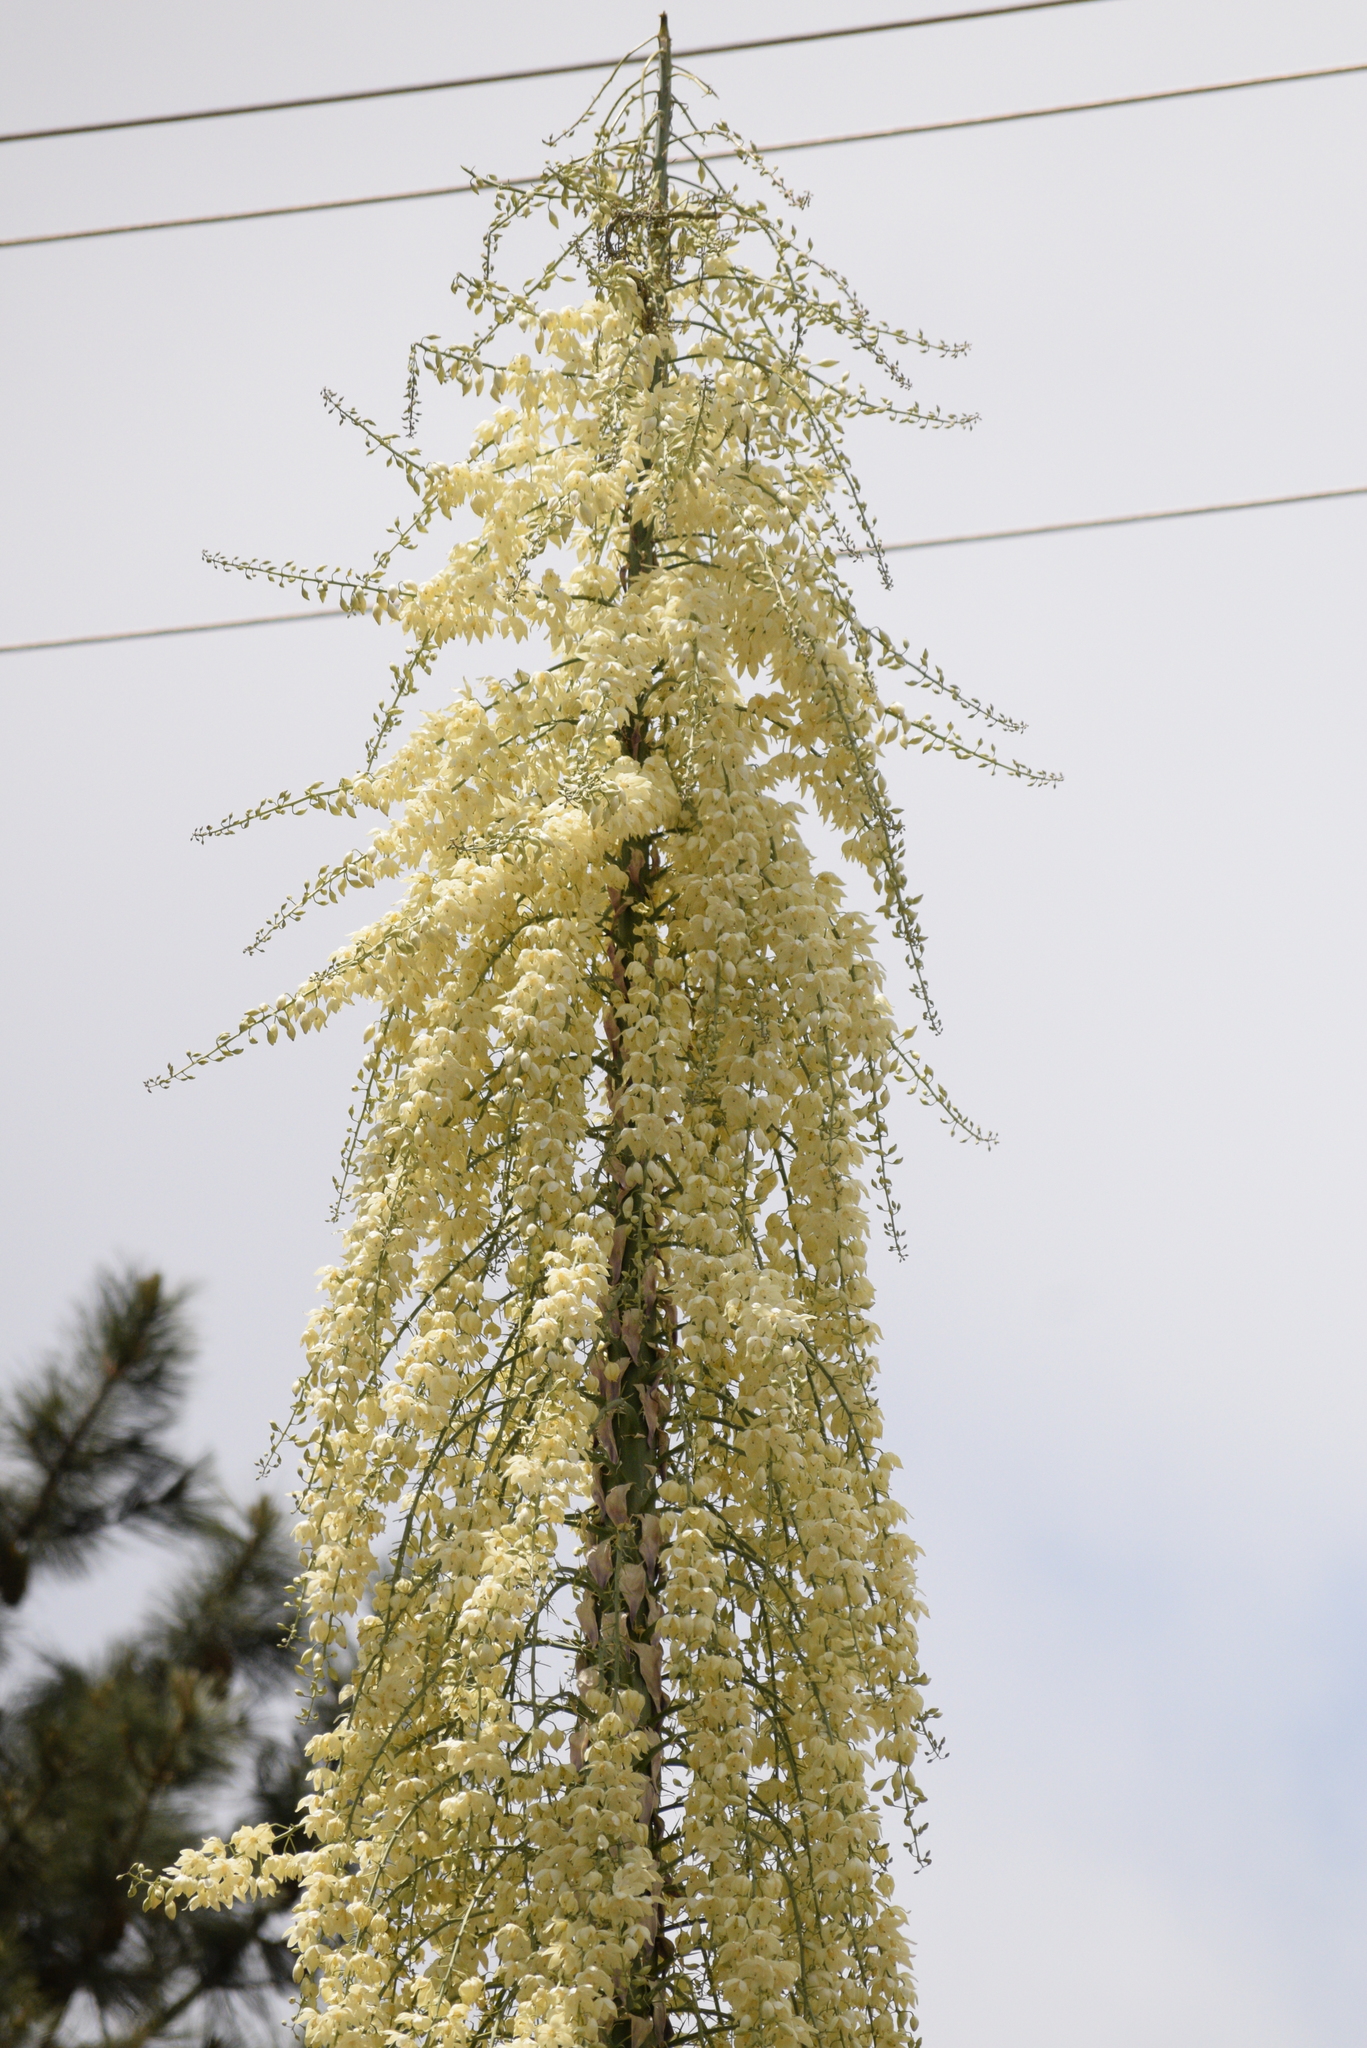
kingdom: Plantae
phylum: Tracheophyta
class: Liliopsida
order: Asparagales
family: Asparagaceae
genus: Hesperoyucca
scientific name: Hesperoyucca whipplei
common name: Our lord's-candle
